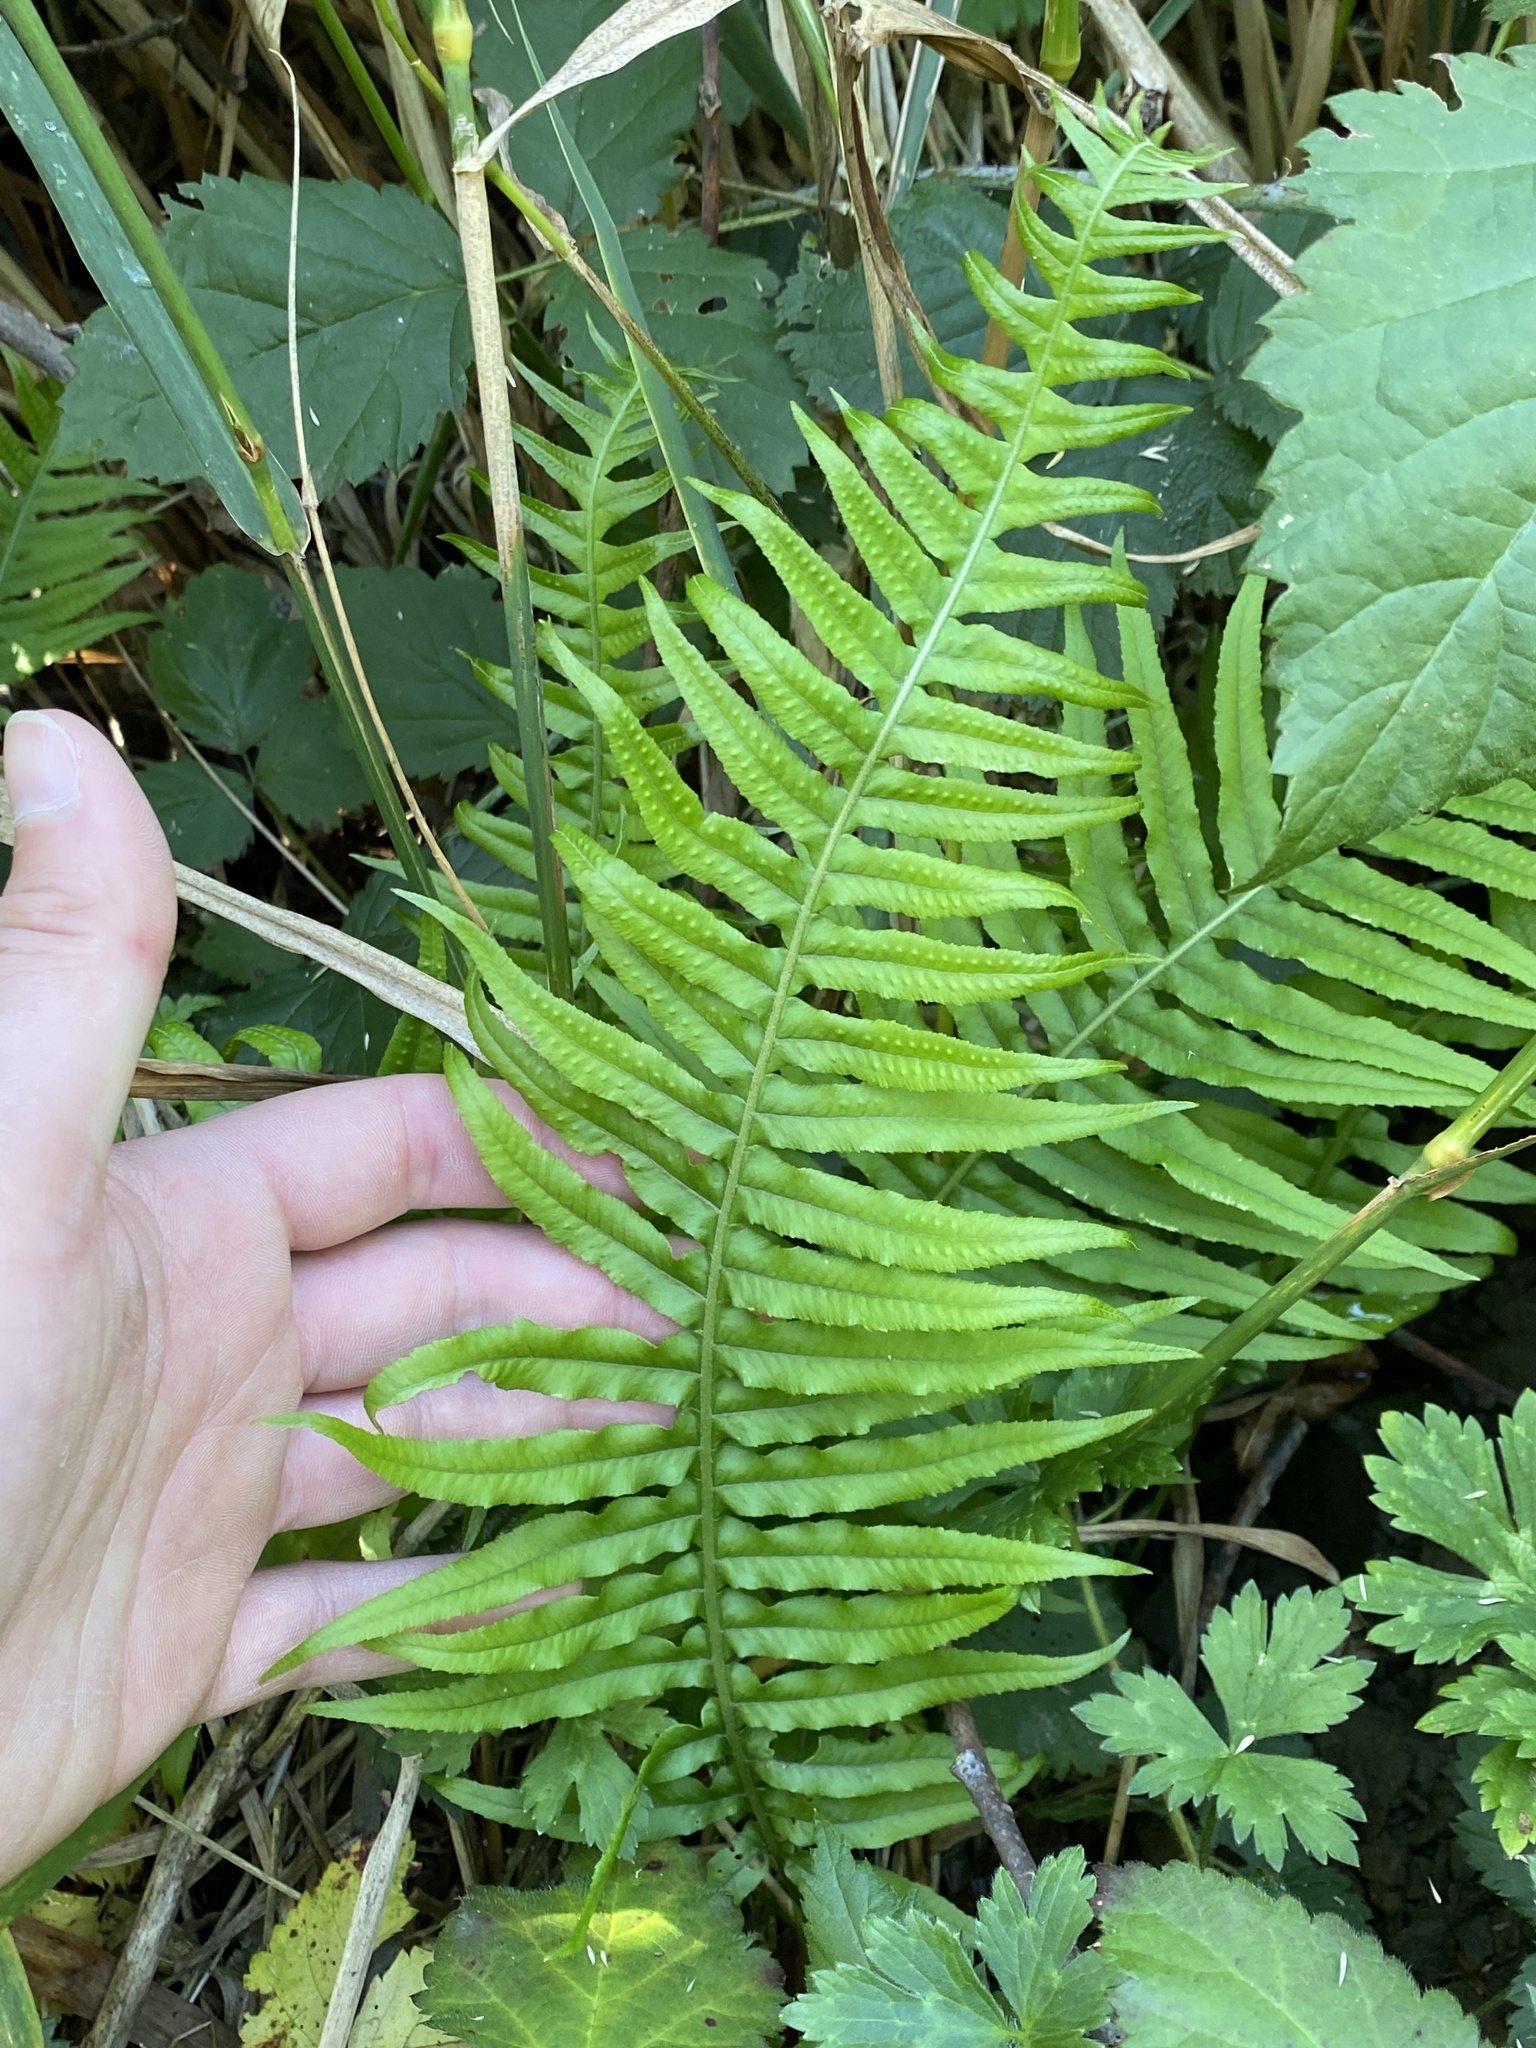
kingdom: Plantae
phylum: Tracheophyta
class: Polypodiopsida
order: Polypodiales
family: Polypodiaceae
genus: Polypodium
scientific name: Polypodium glycyrrhiza
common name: Licorice fern
